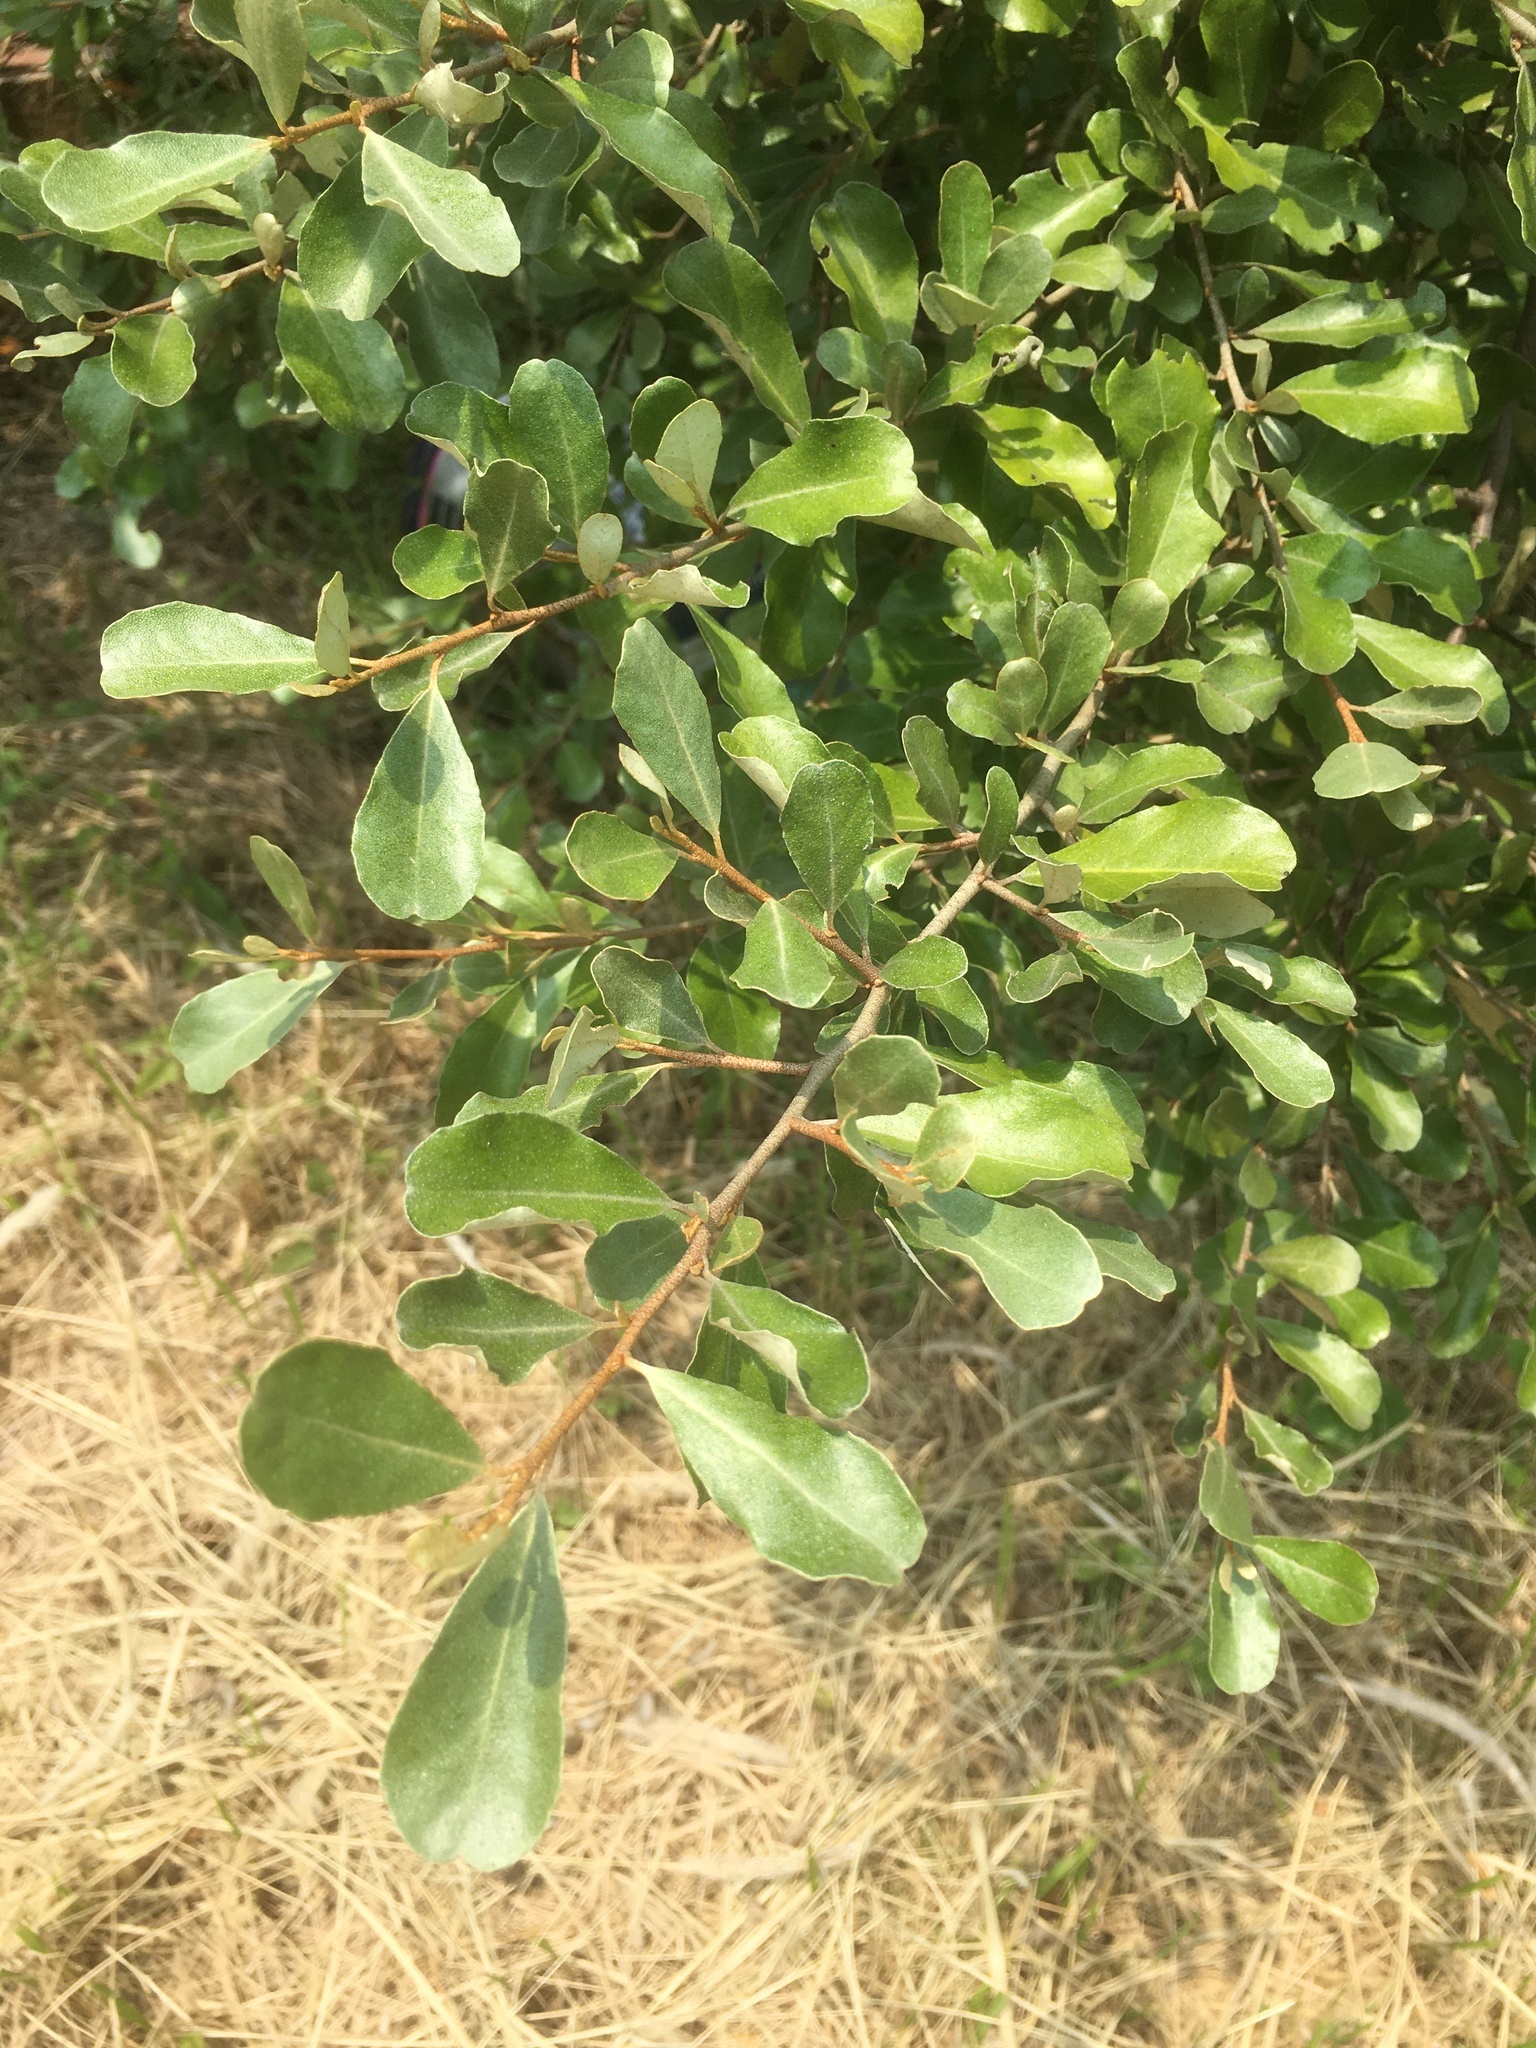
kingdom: Plantae
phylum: Tracheophyta
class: Magnoliopsida
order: Rosales
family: Elaeagnaceae
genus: Elaeagnus
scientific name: Elaeagnus oldhamii
